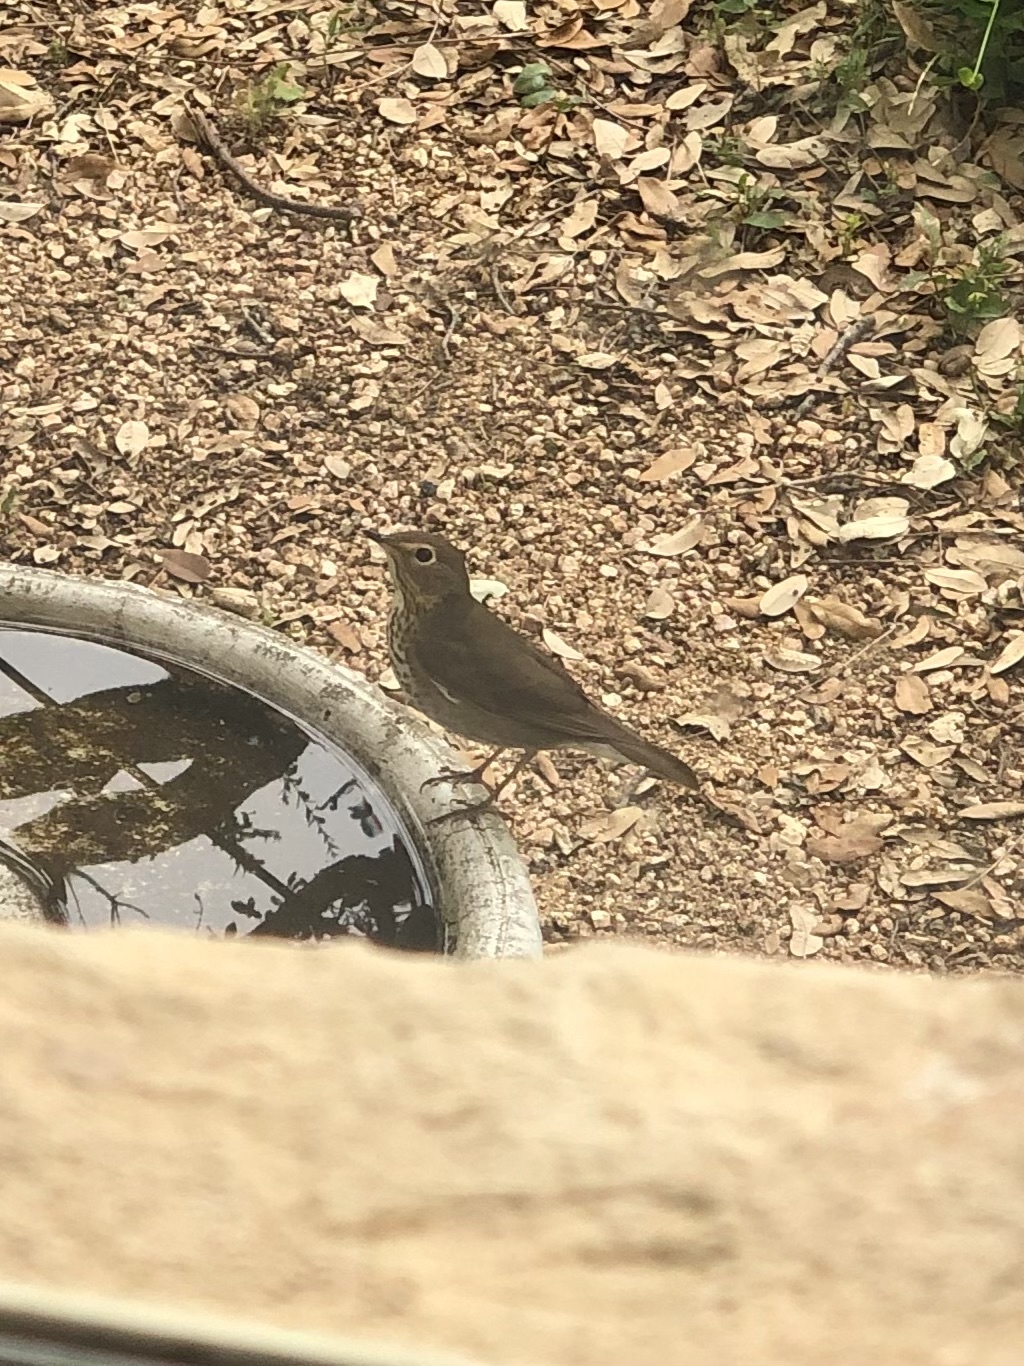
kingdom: Animalia
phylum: Chordata
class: Aves
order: Passeriformes
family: Turdidae
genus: Catharus
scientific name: Catharus ustulatus
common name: Swainson's thrush
